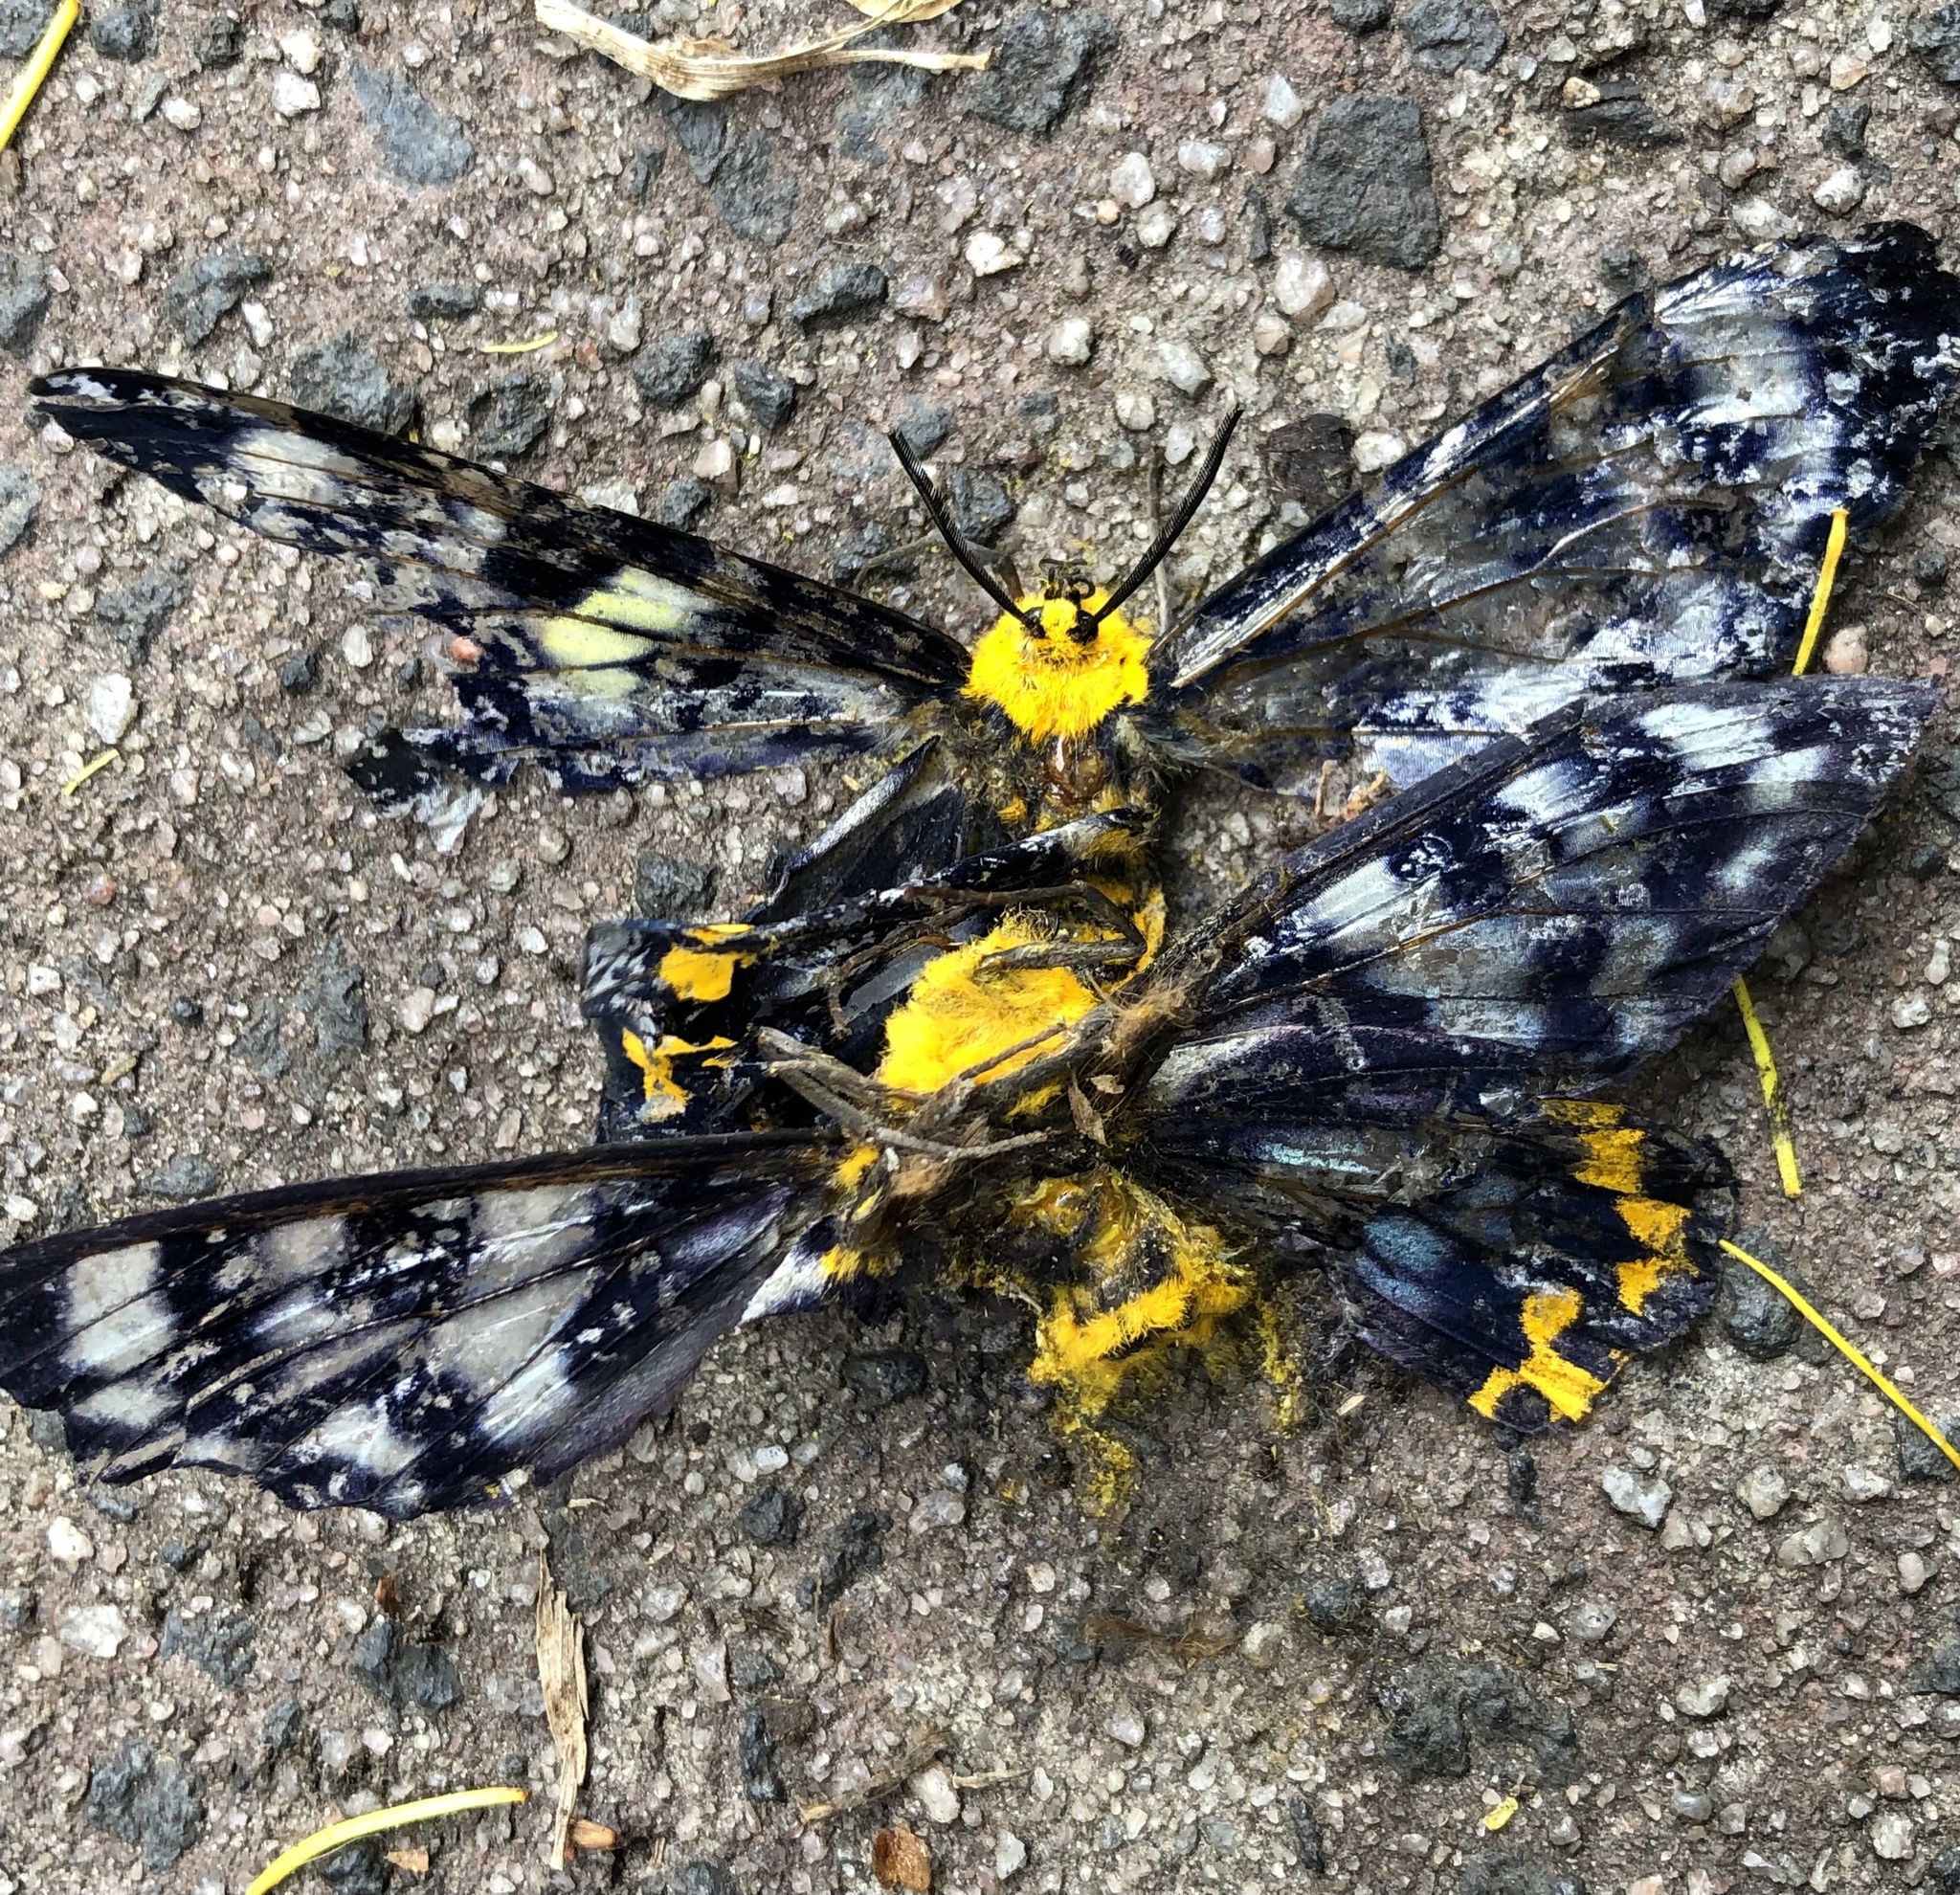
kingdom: Animalia
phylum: Arthropoda
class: Insecta
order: Lepidoptera
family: Geometridae
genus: Dysphania
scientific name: Dysphania numana
